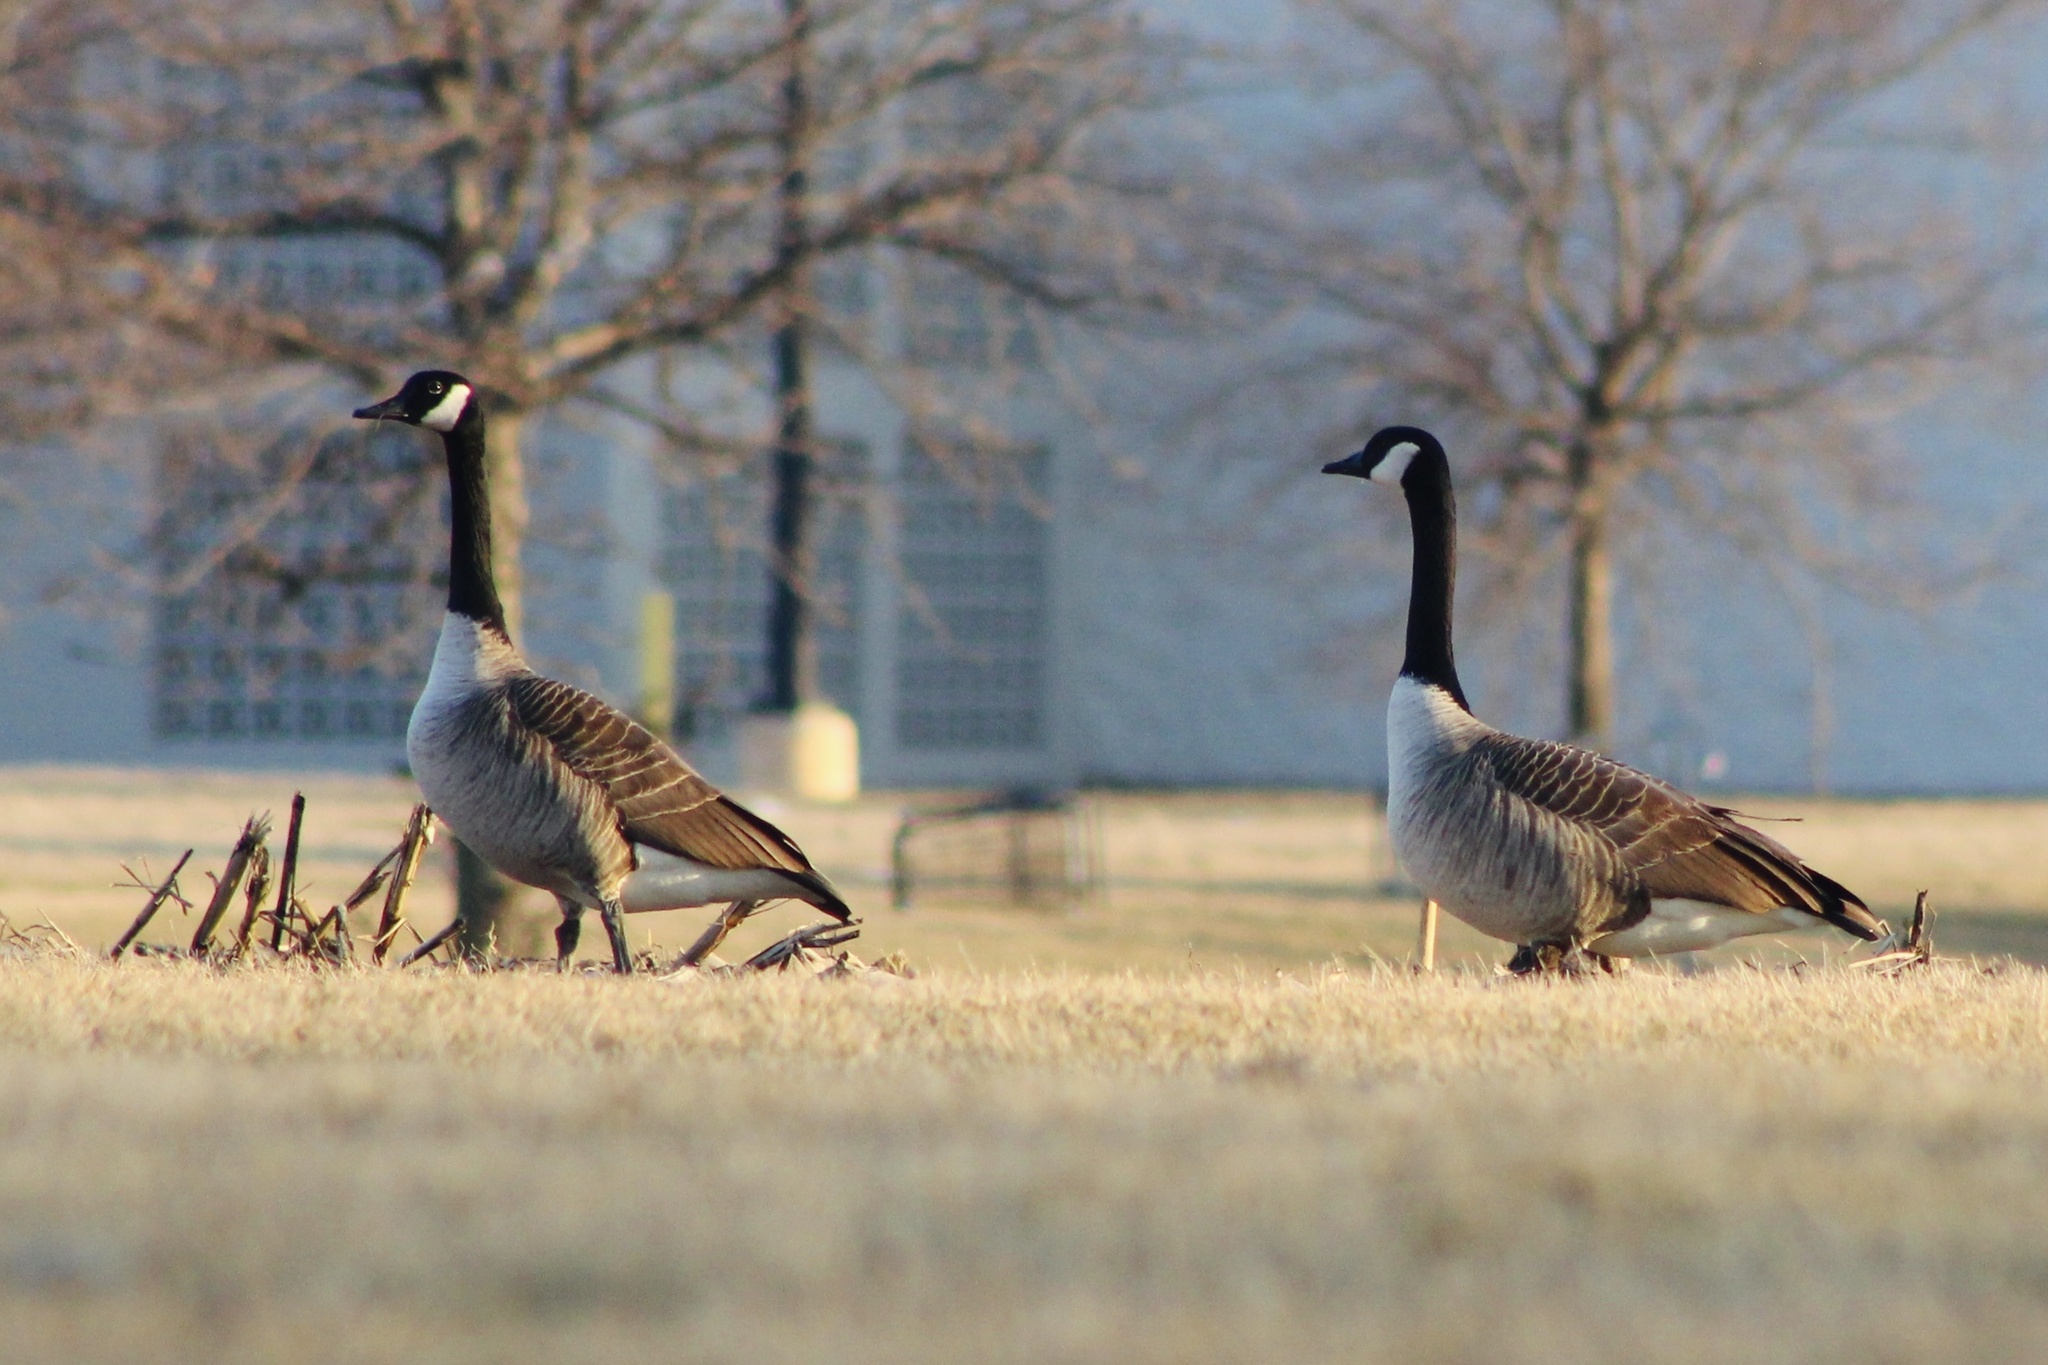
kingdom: Animalia
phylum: Chordata
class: Aves
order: Anseriformes
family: Anatidae
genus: Branta
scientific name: Branta canadensis
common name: Canada goose
